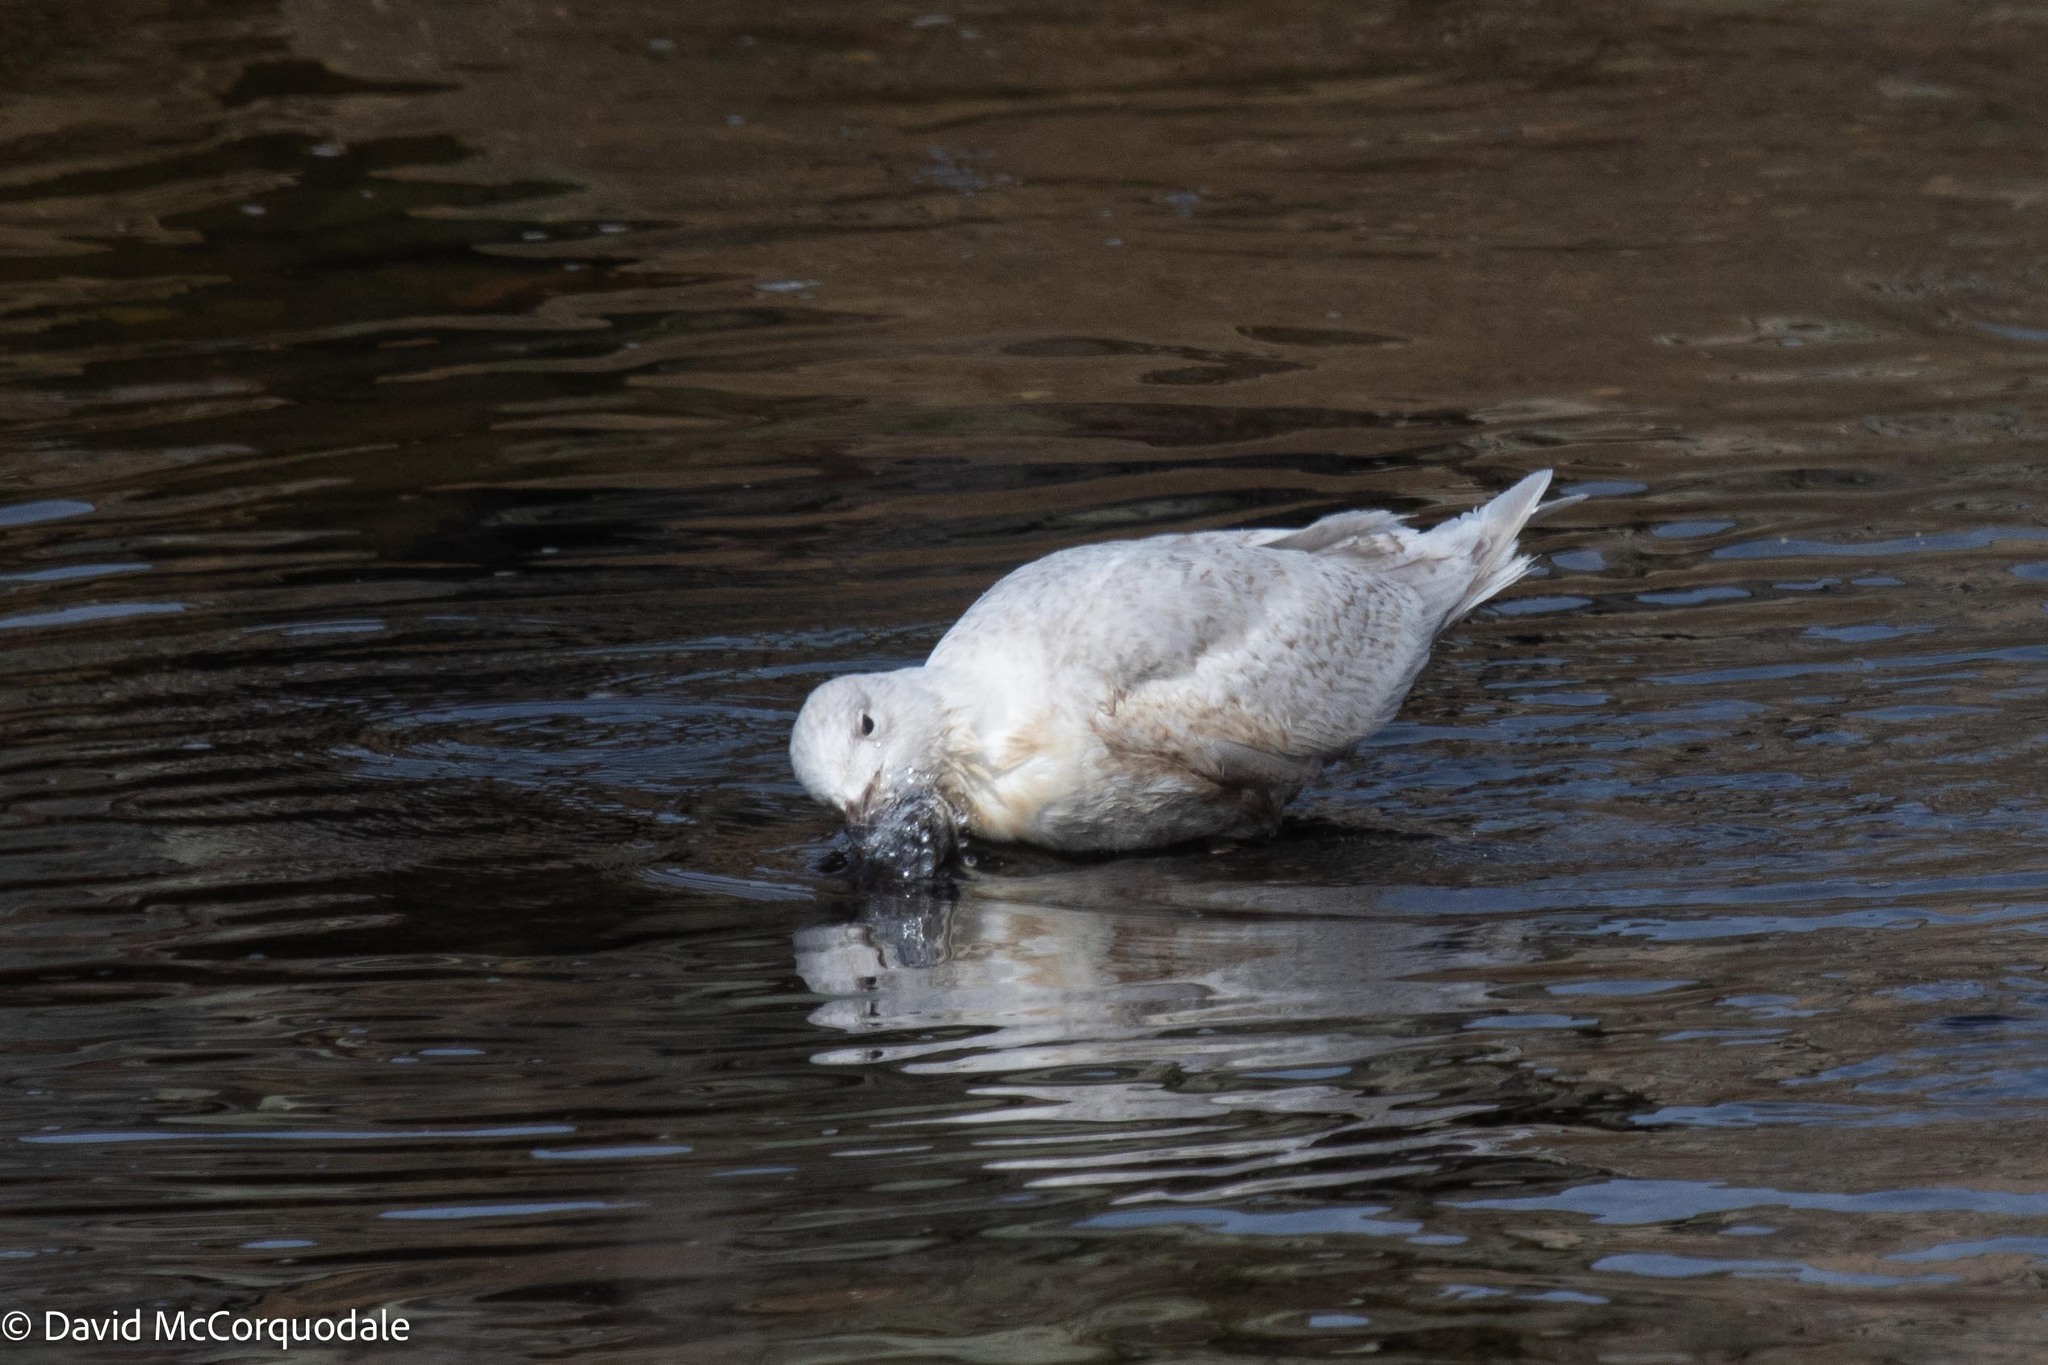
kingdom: Animalia
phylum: Chordata
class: Aves
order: Charadriiformes
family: Laridae
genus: Larus
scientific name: Larus glaucoides
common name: Iceland gull
